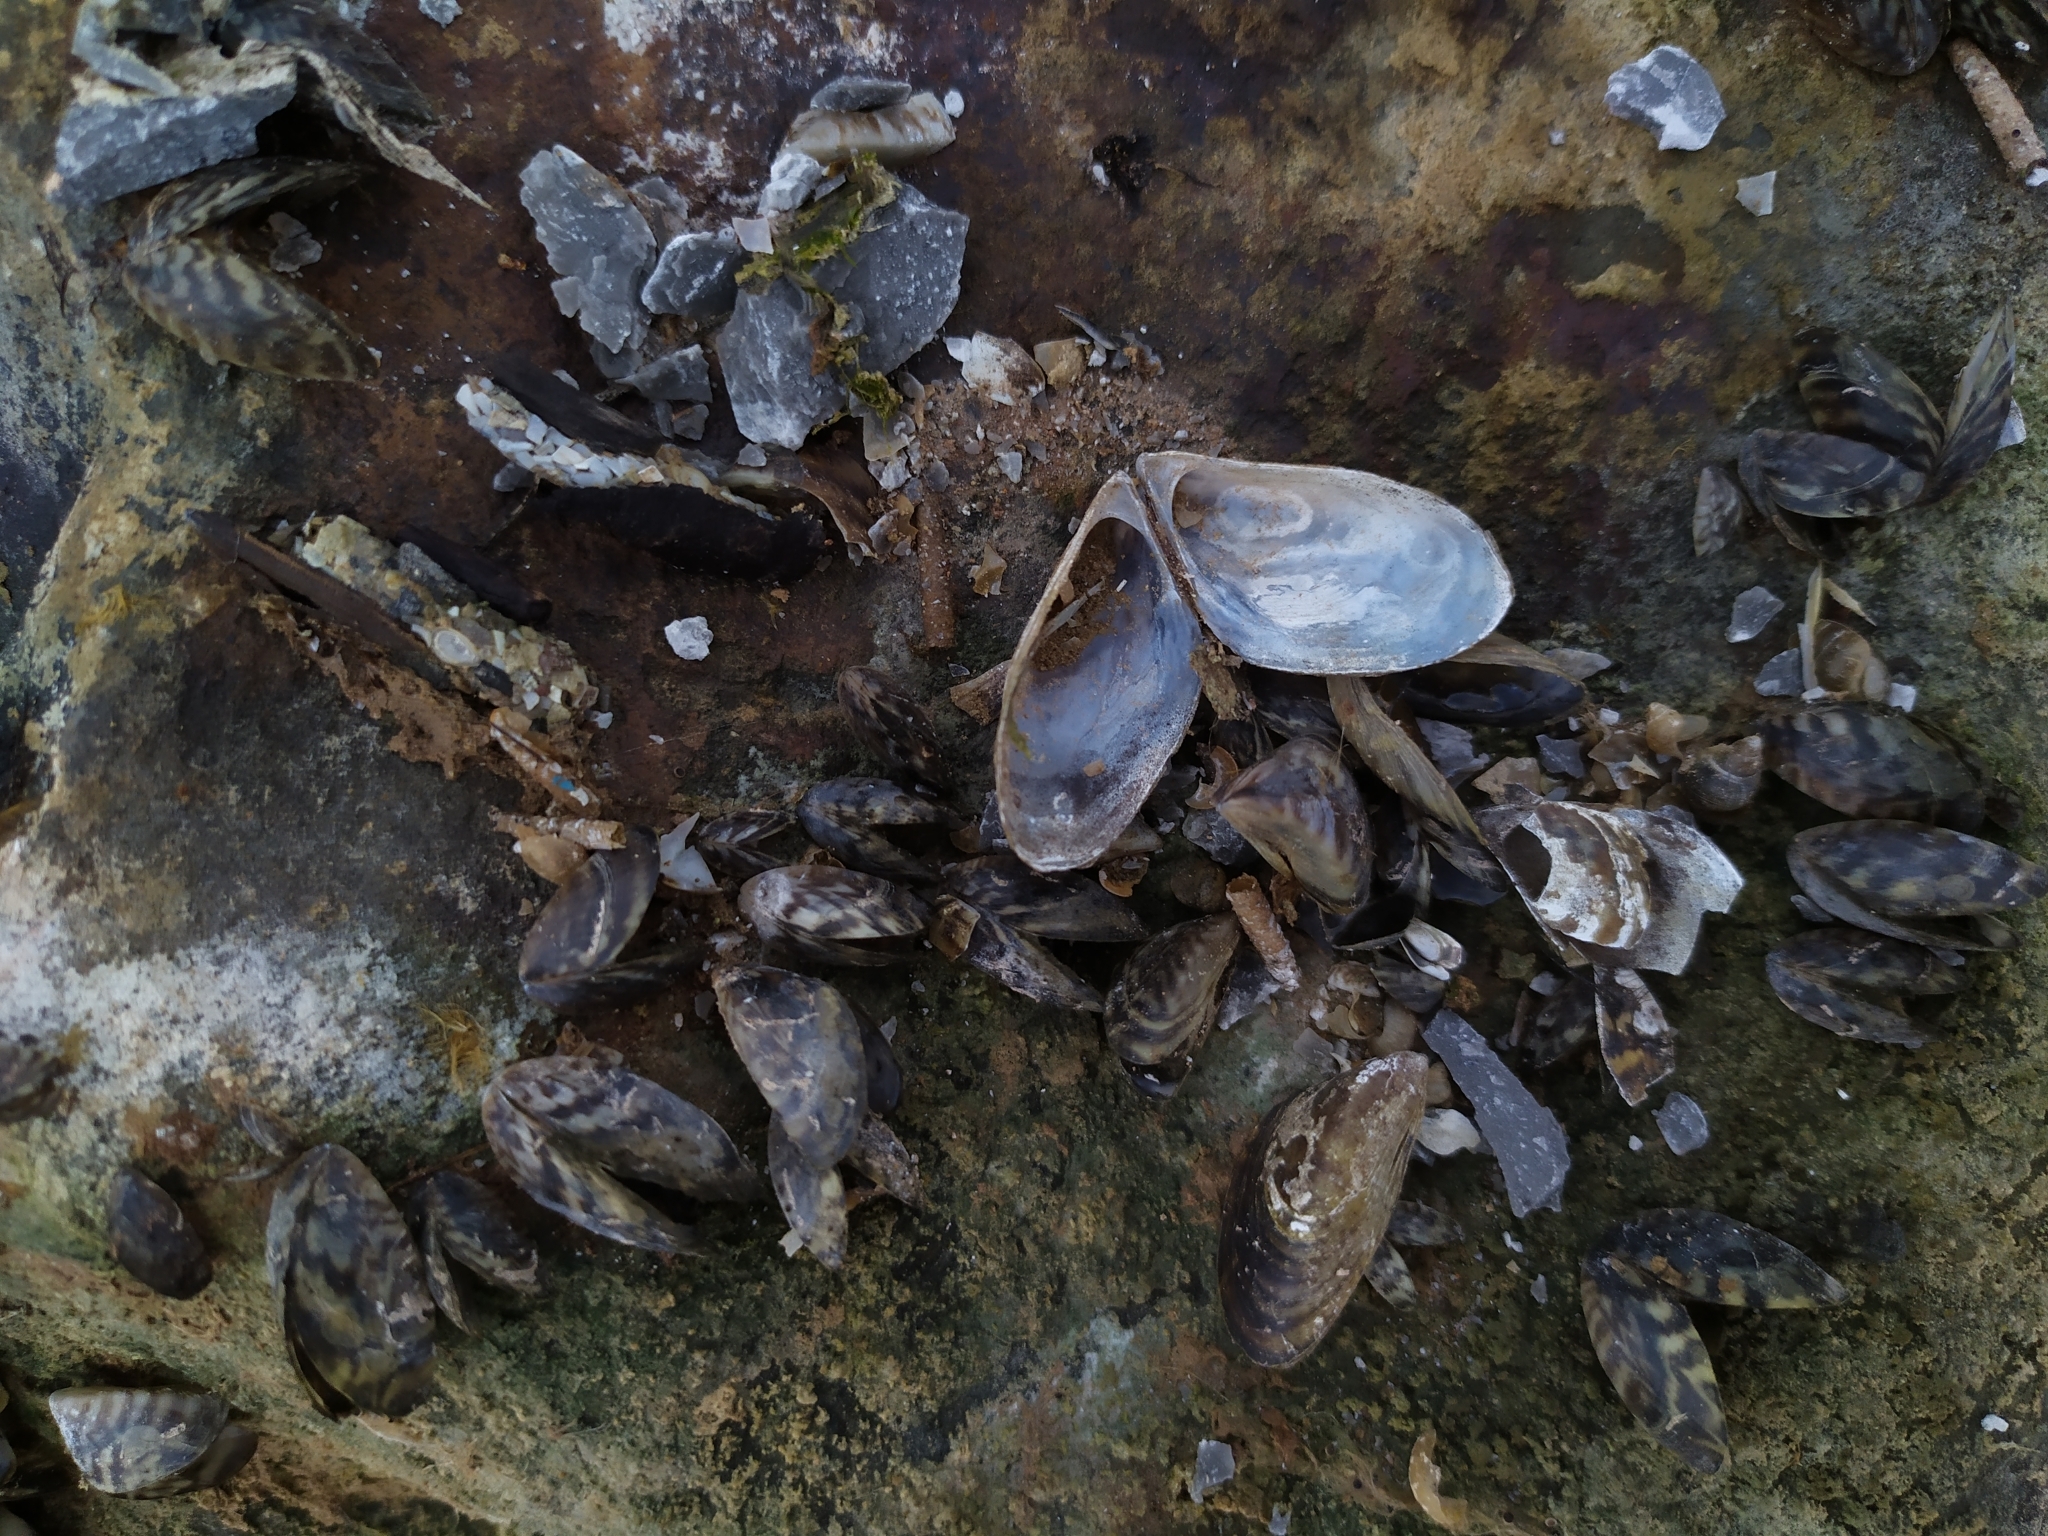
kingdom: Animalia
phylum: Mollusca
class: Bivalvia
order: Myida
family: Dreissenidae
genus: Dreissena
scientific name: Dreissena polymorpha
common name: Zebra mussel
